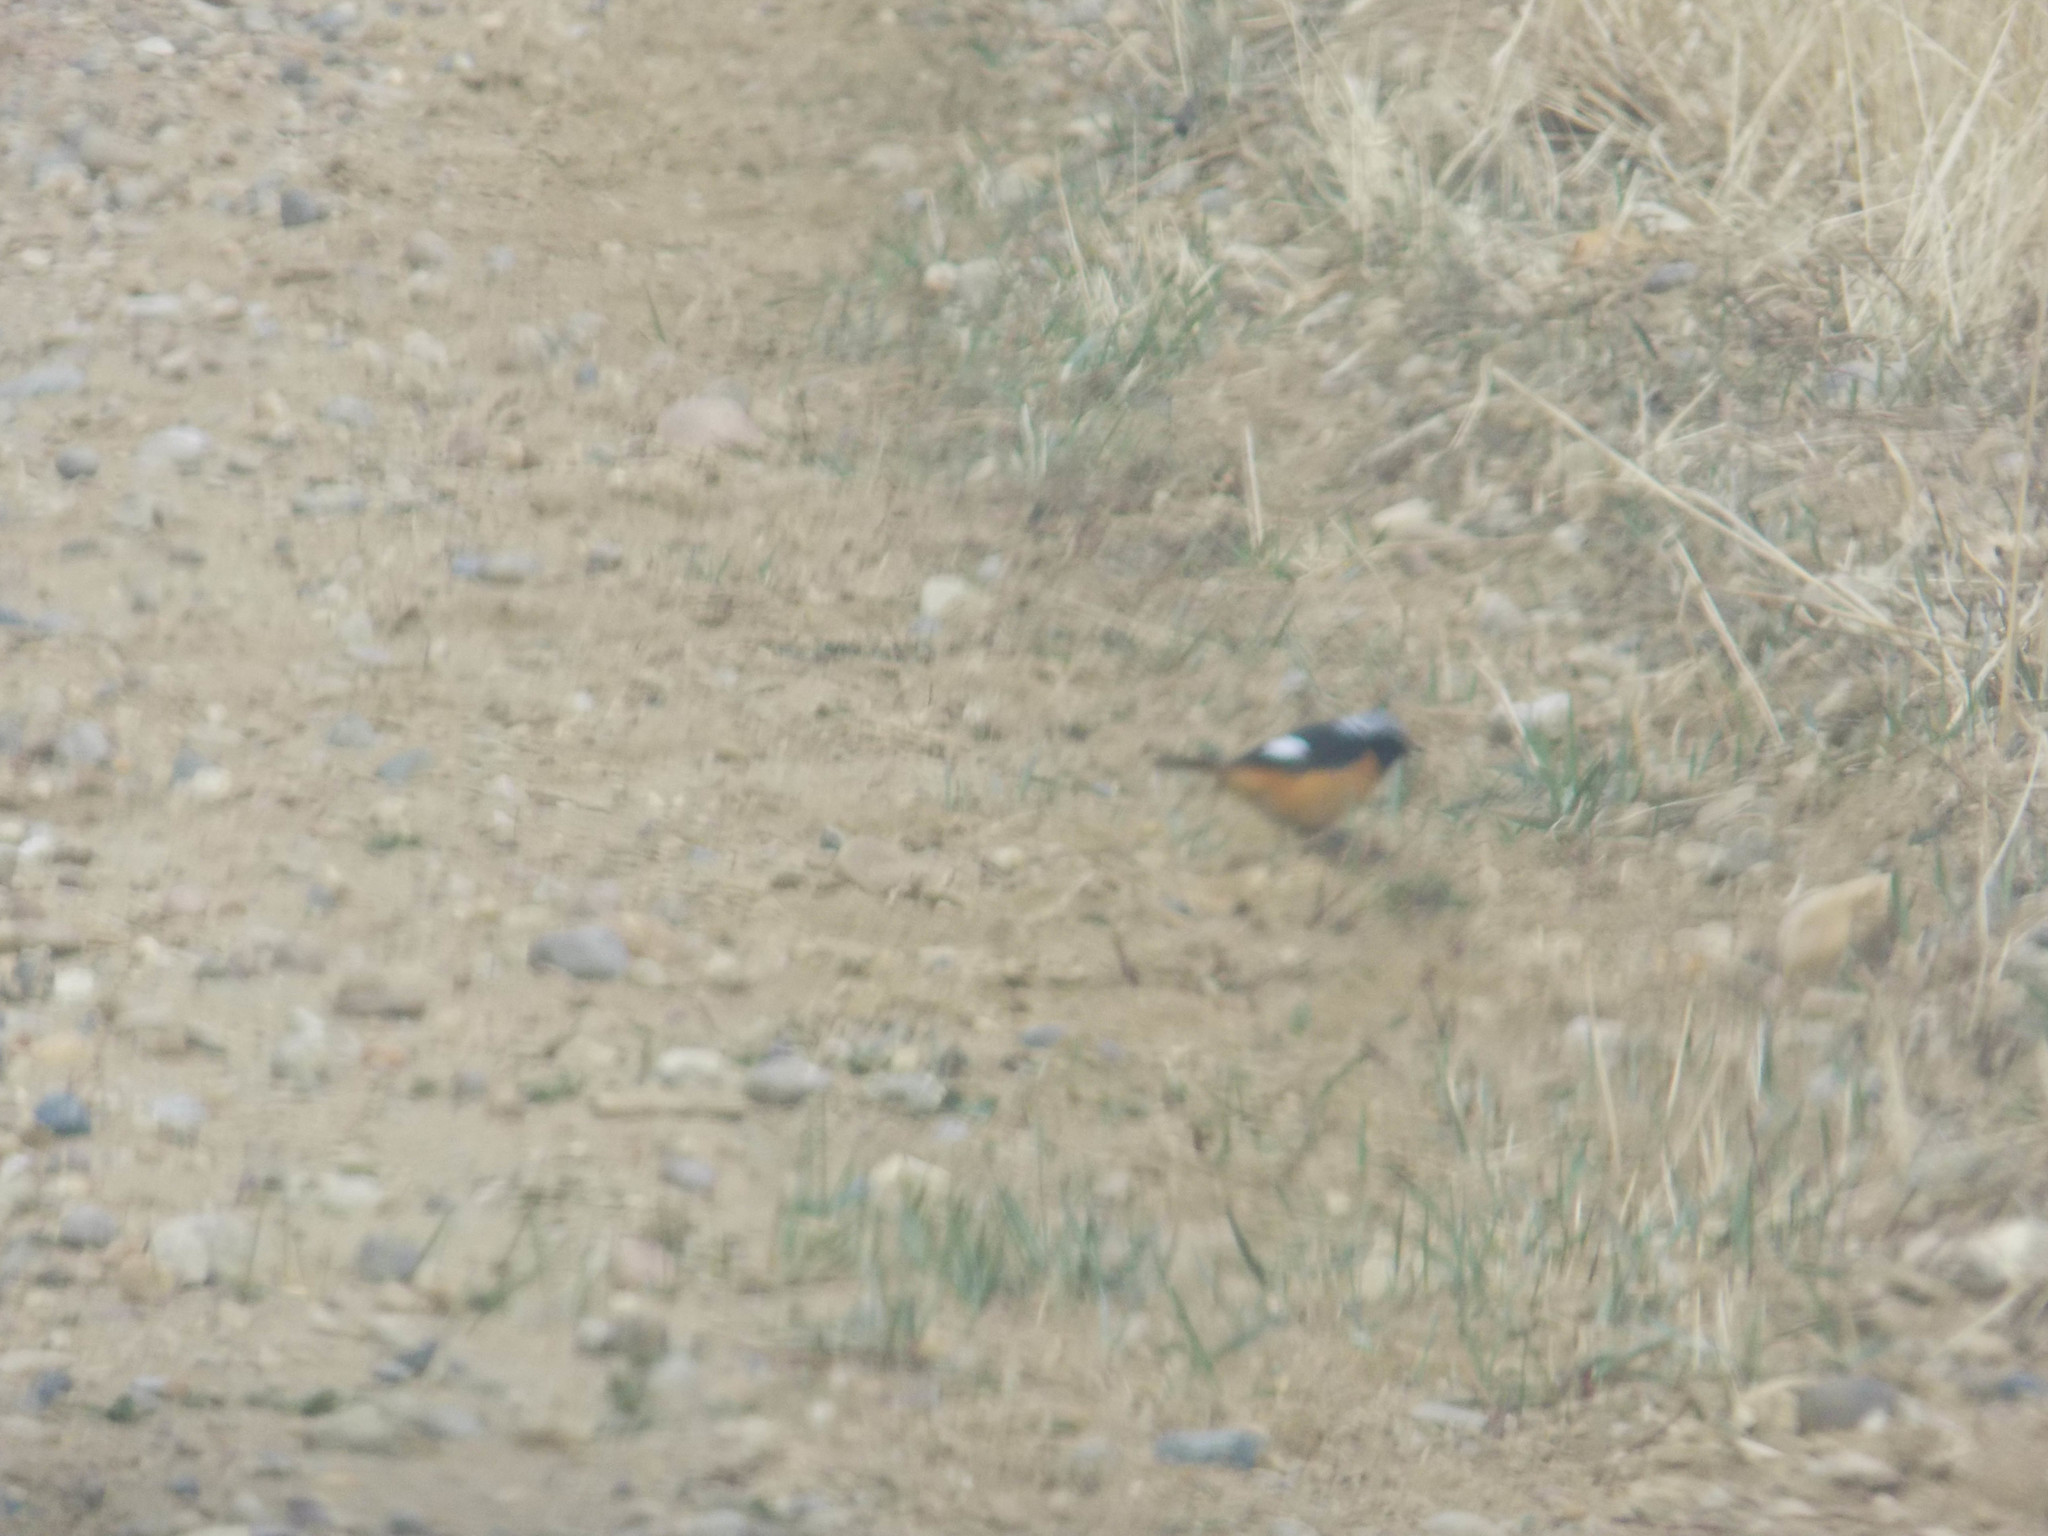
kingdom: Animalia
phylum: Chordata
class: Aves
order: Passeriformes
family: Muscicapidae
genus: Phoenicurus
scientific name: Phoenicurus auroreus
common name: Daurian redstart
